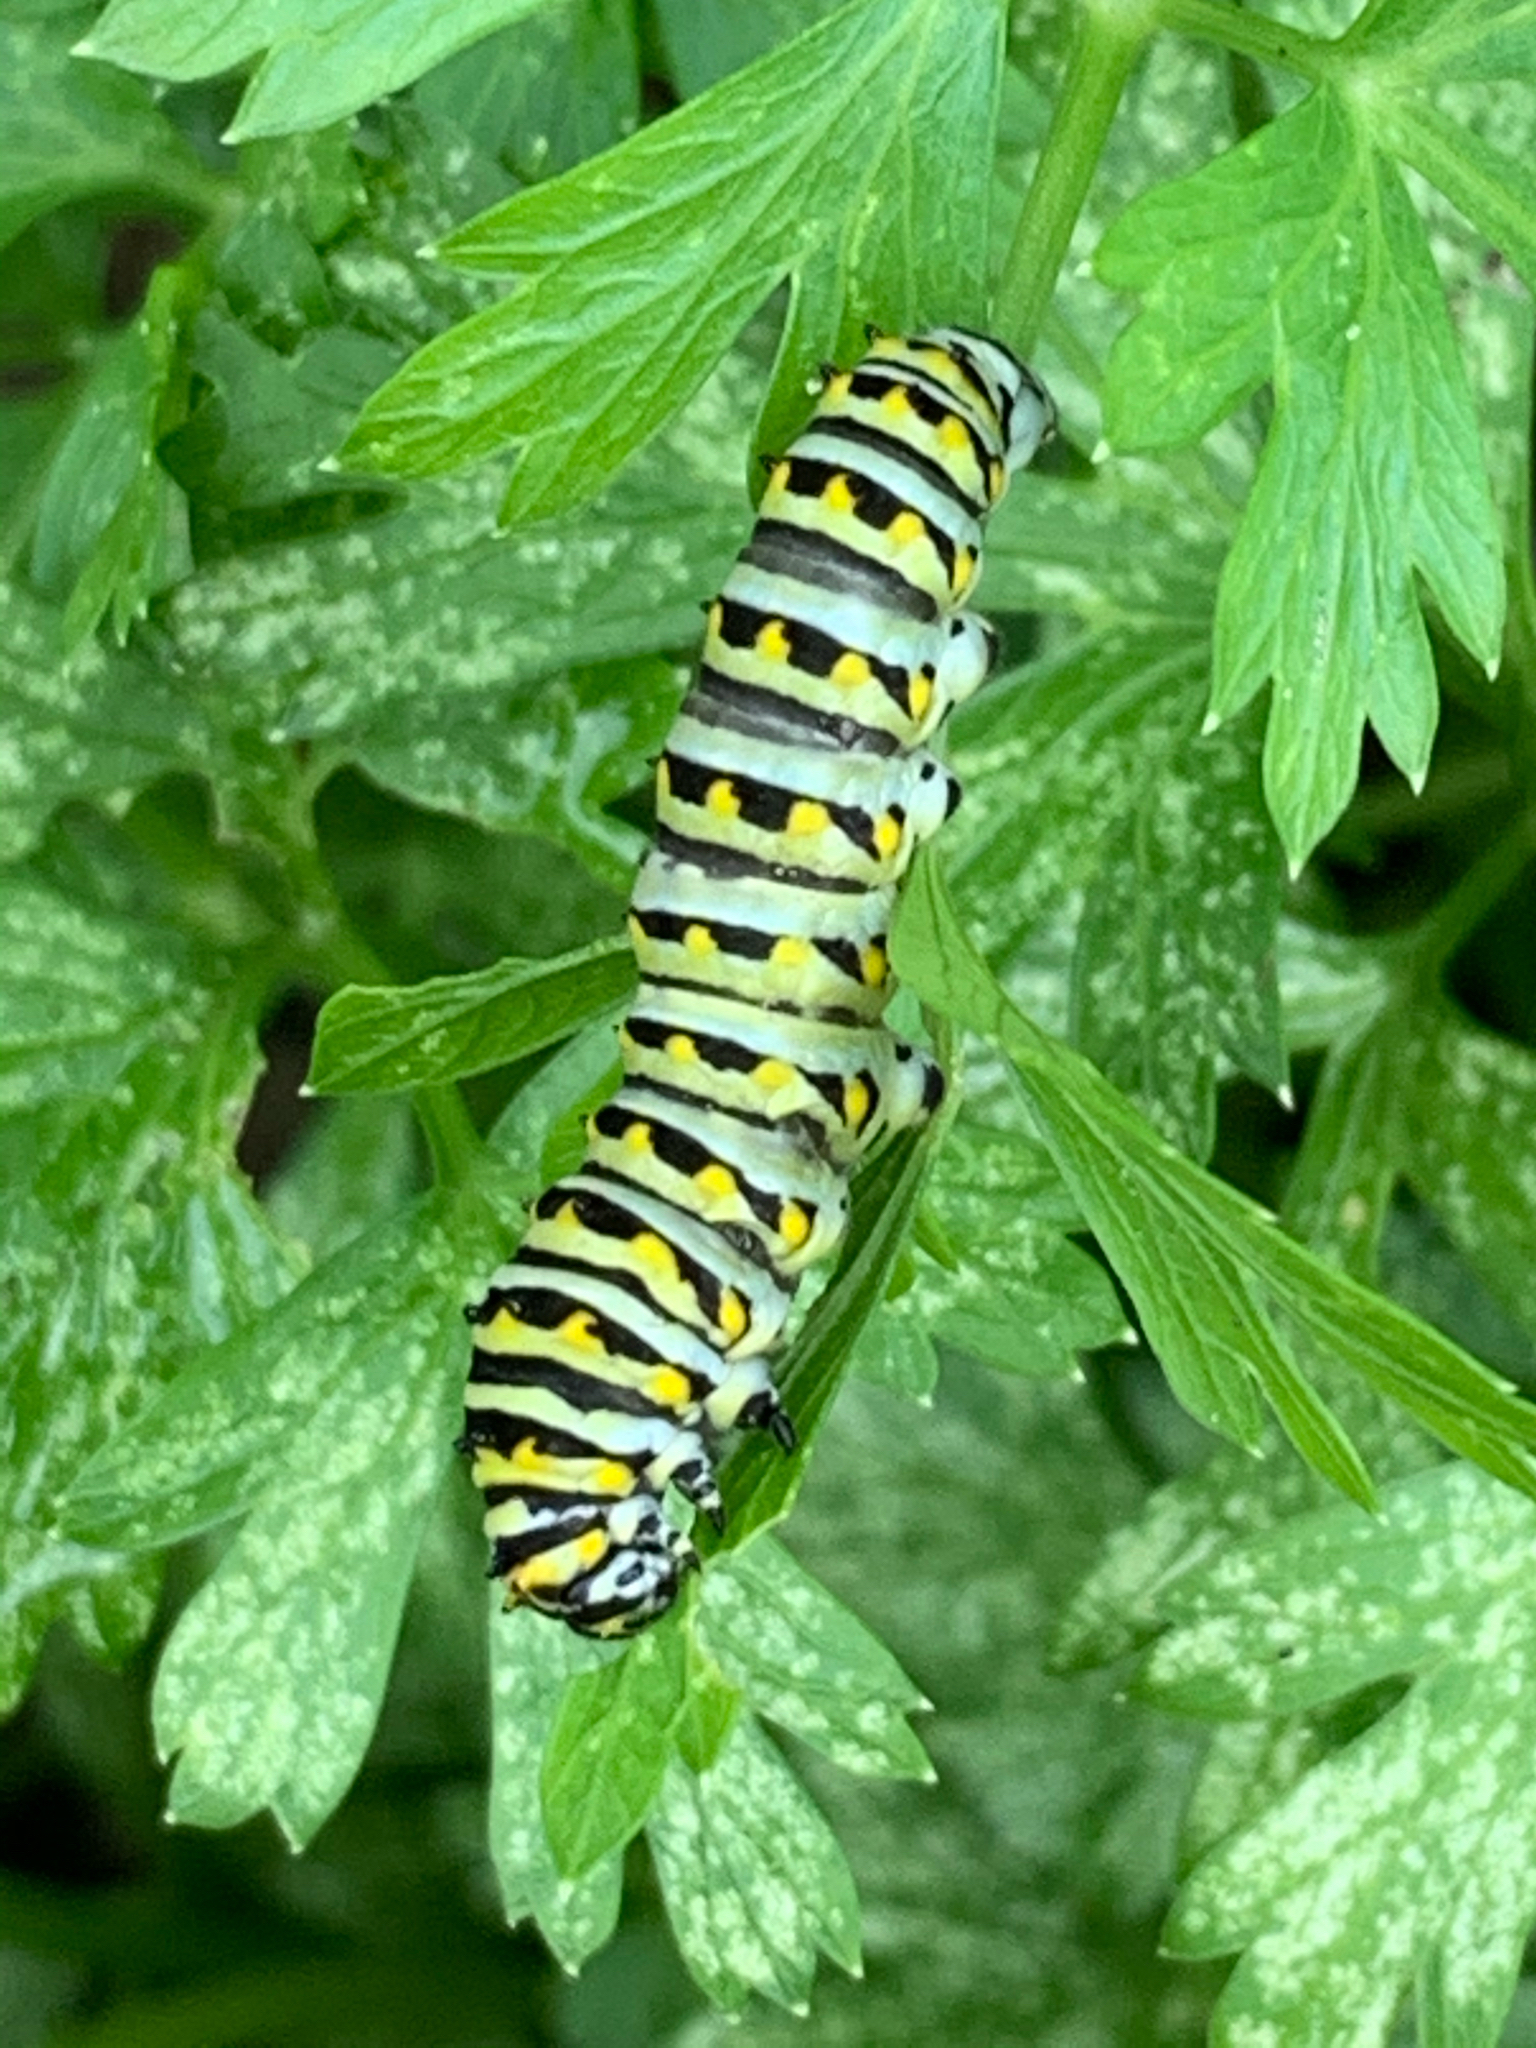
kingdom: Animalia
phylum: Arthropoda
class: Insecta
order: Lepidoptera
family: Papilionidae
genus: Papilio
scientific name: Papilio polyxenes
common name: Black swallowtail
